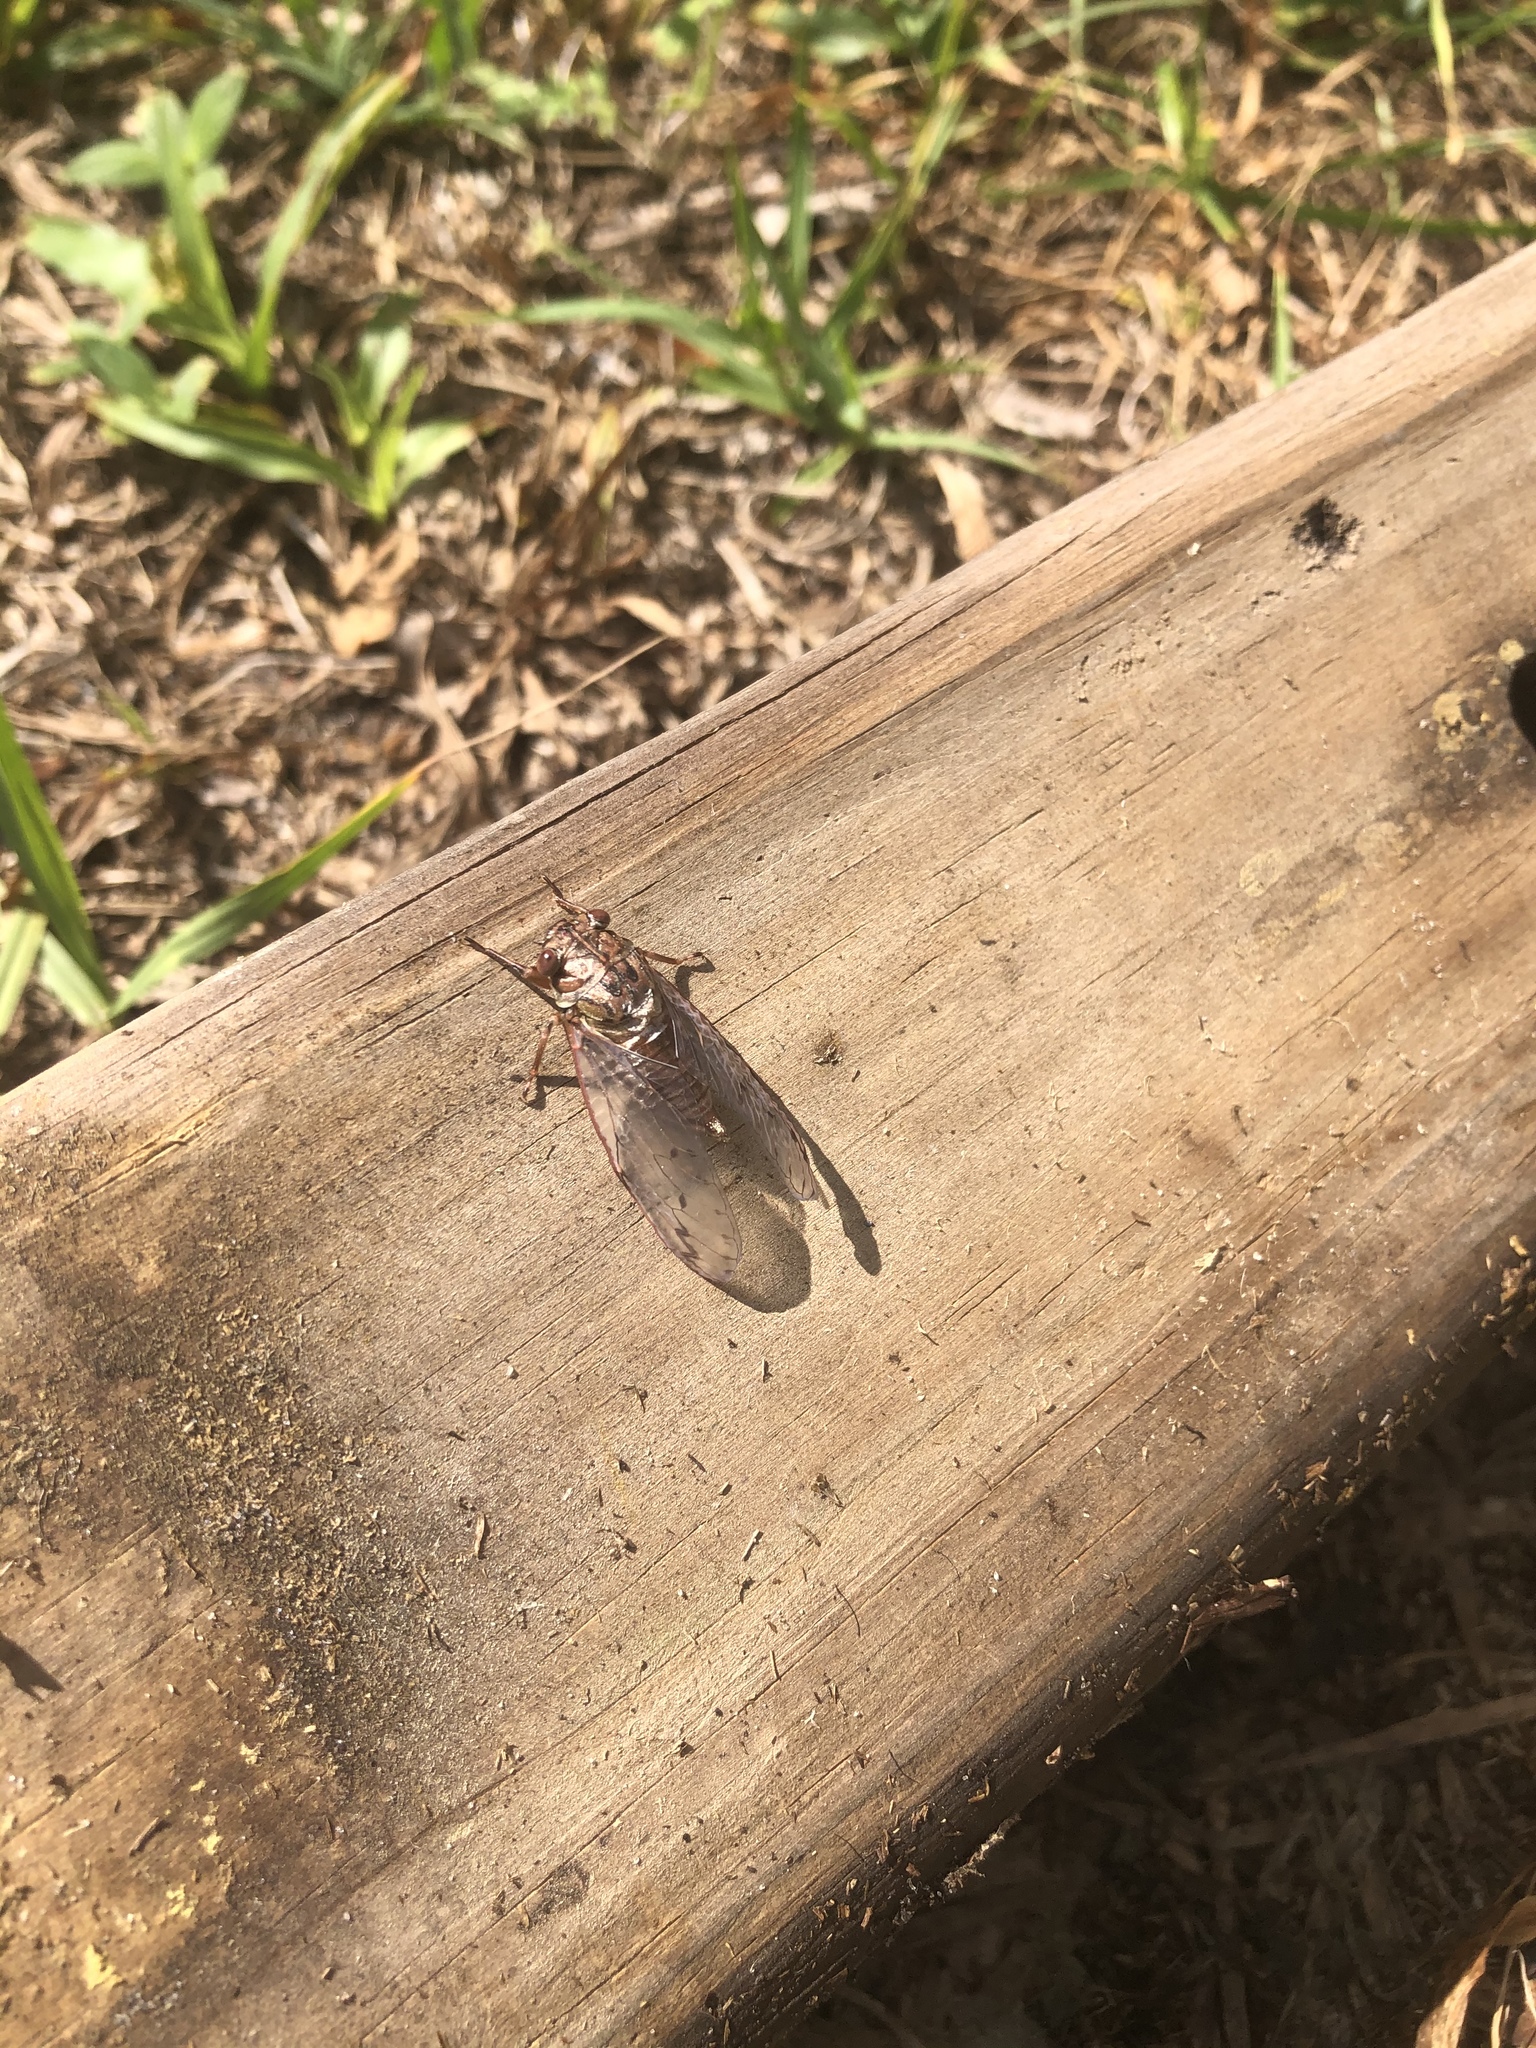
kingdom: Animalia
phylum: Arthropoda
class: Insecta
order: Hemiptera
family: Cicadidae
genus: Neocicada
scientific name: Neocicada hieroglyphica
